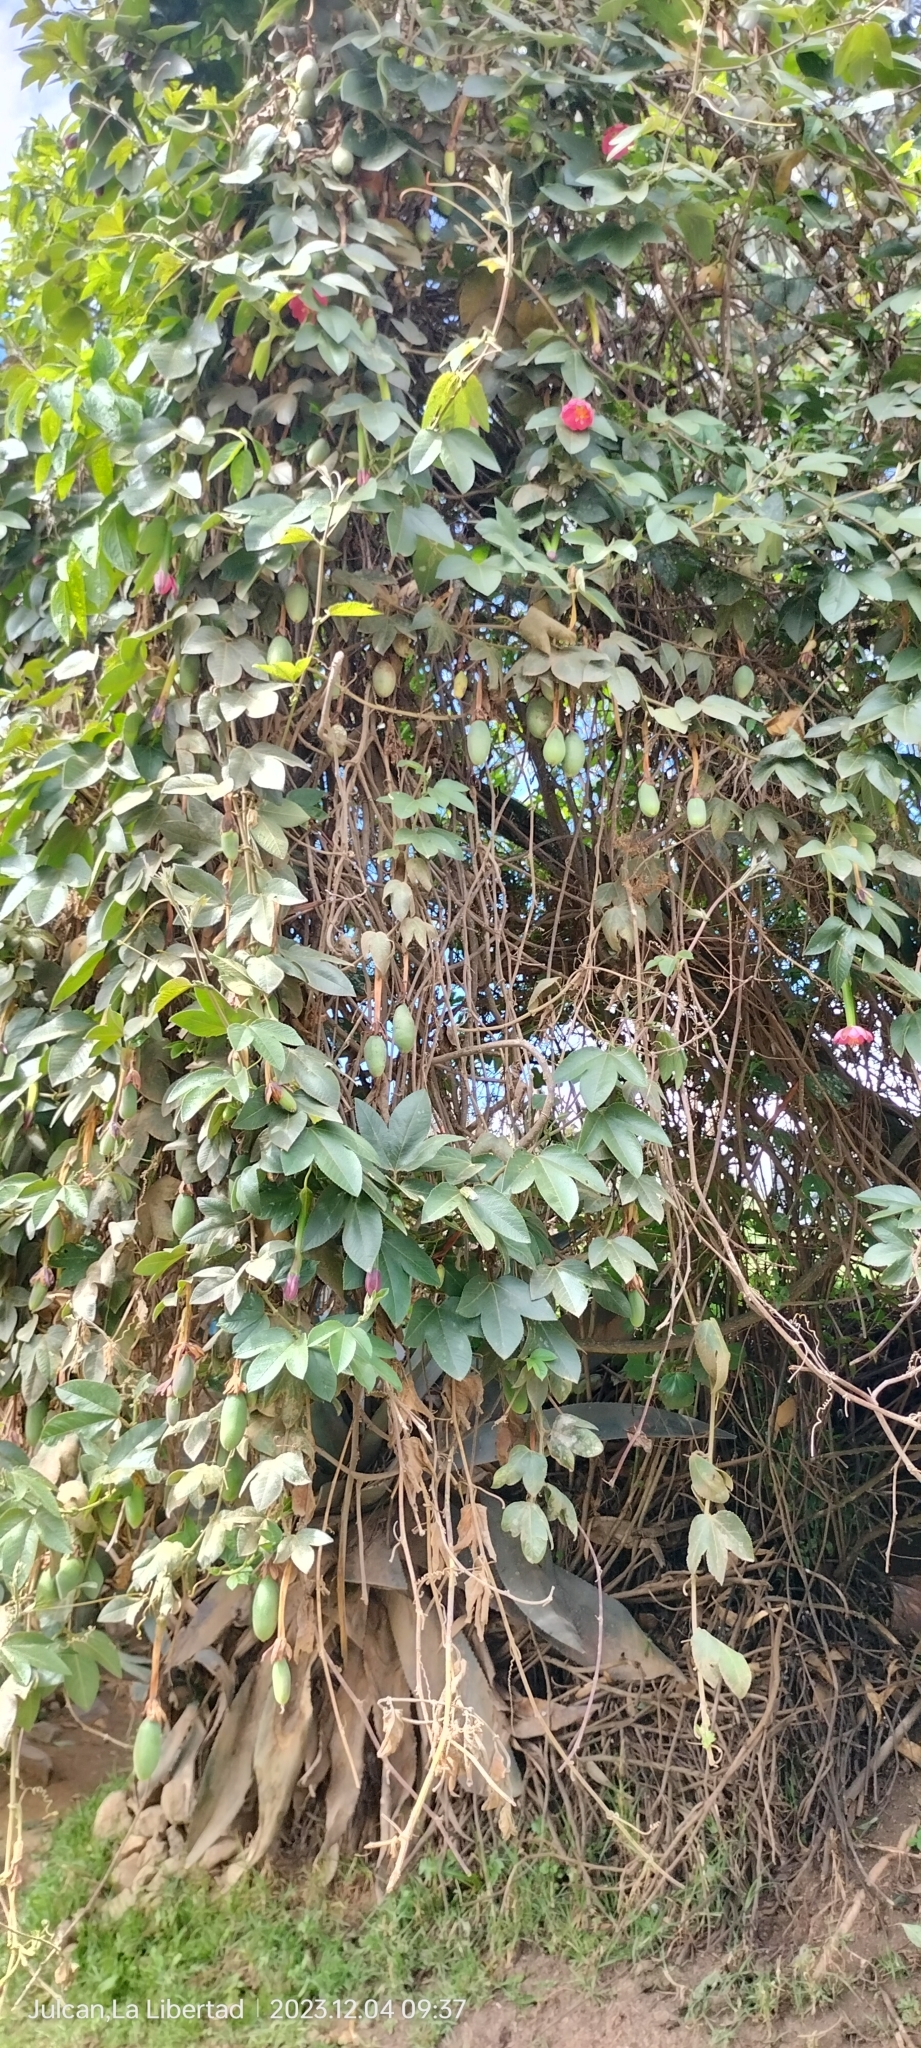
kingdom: Plantae
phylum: Tracheophyta
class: Magnoliopsida
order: Malpighiales
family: Passifloraceae
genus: Passiflora
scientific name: Passiflora tripartita
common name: Banana poka
